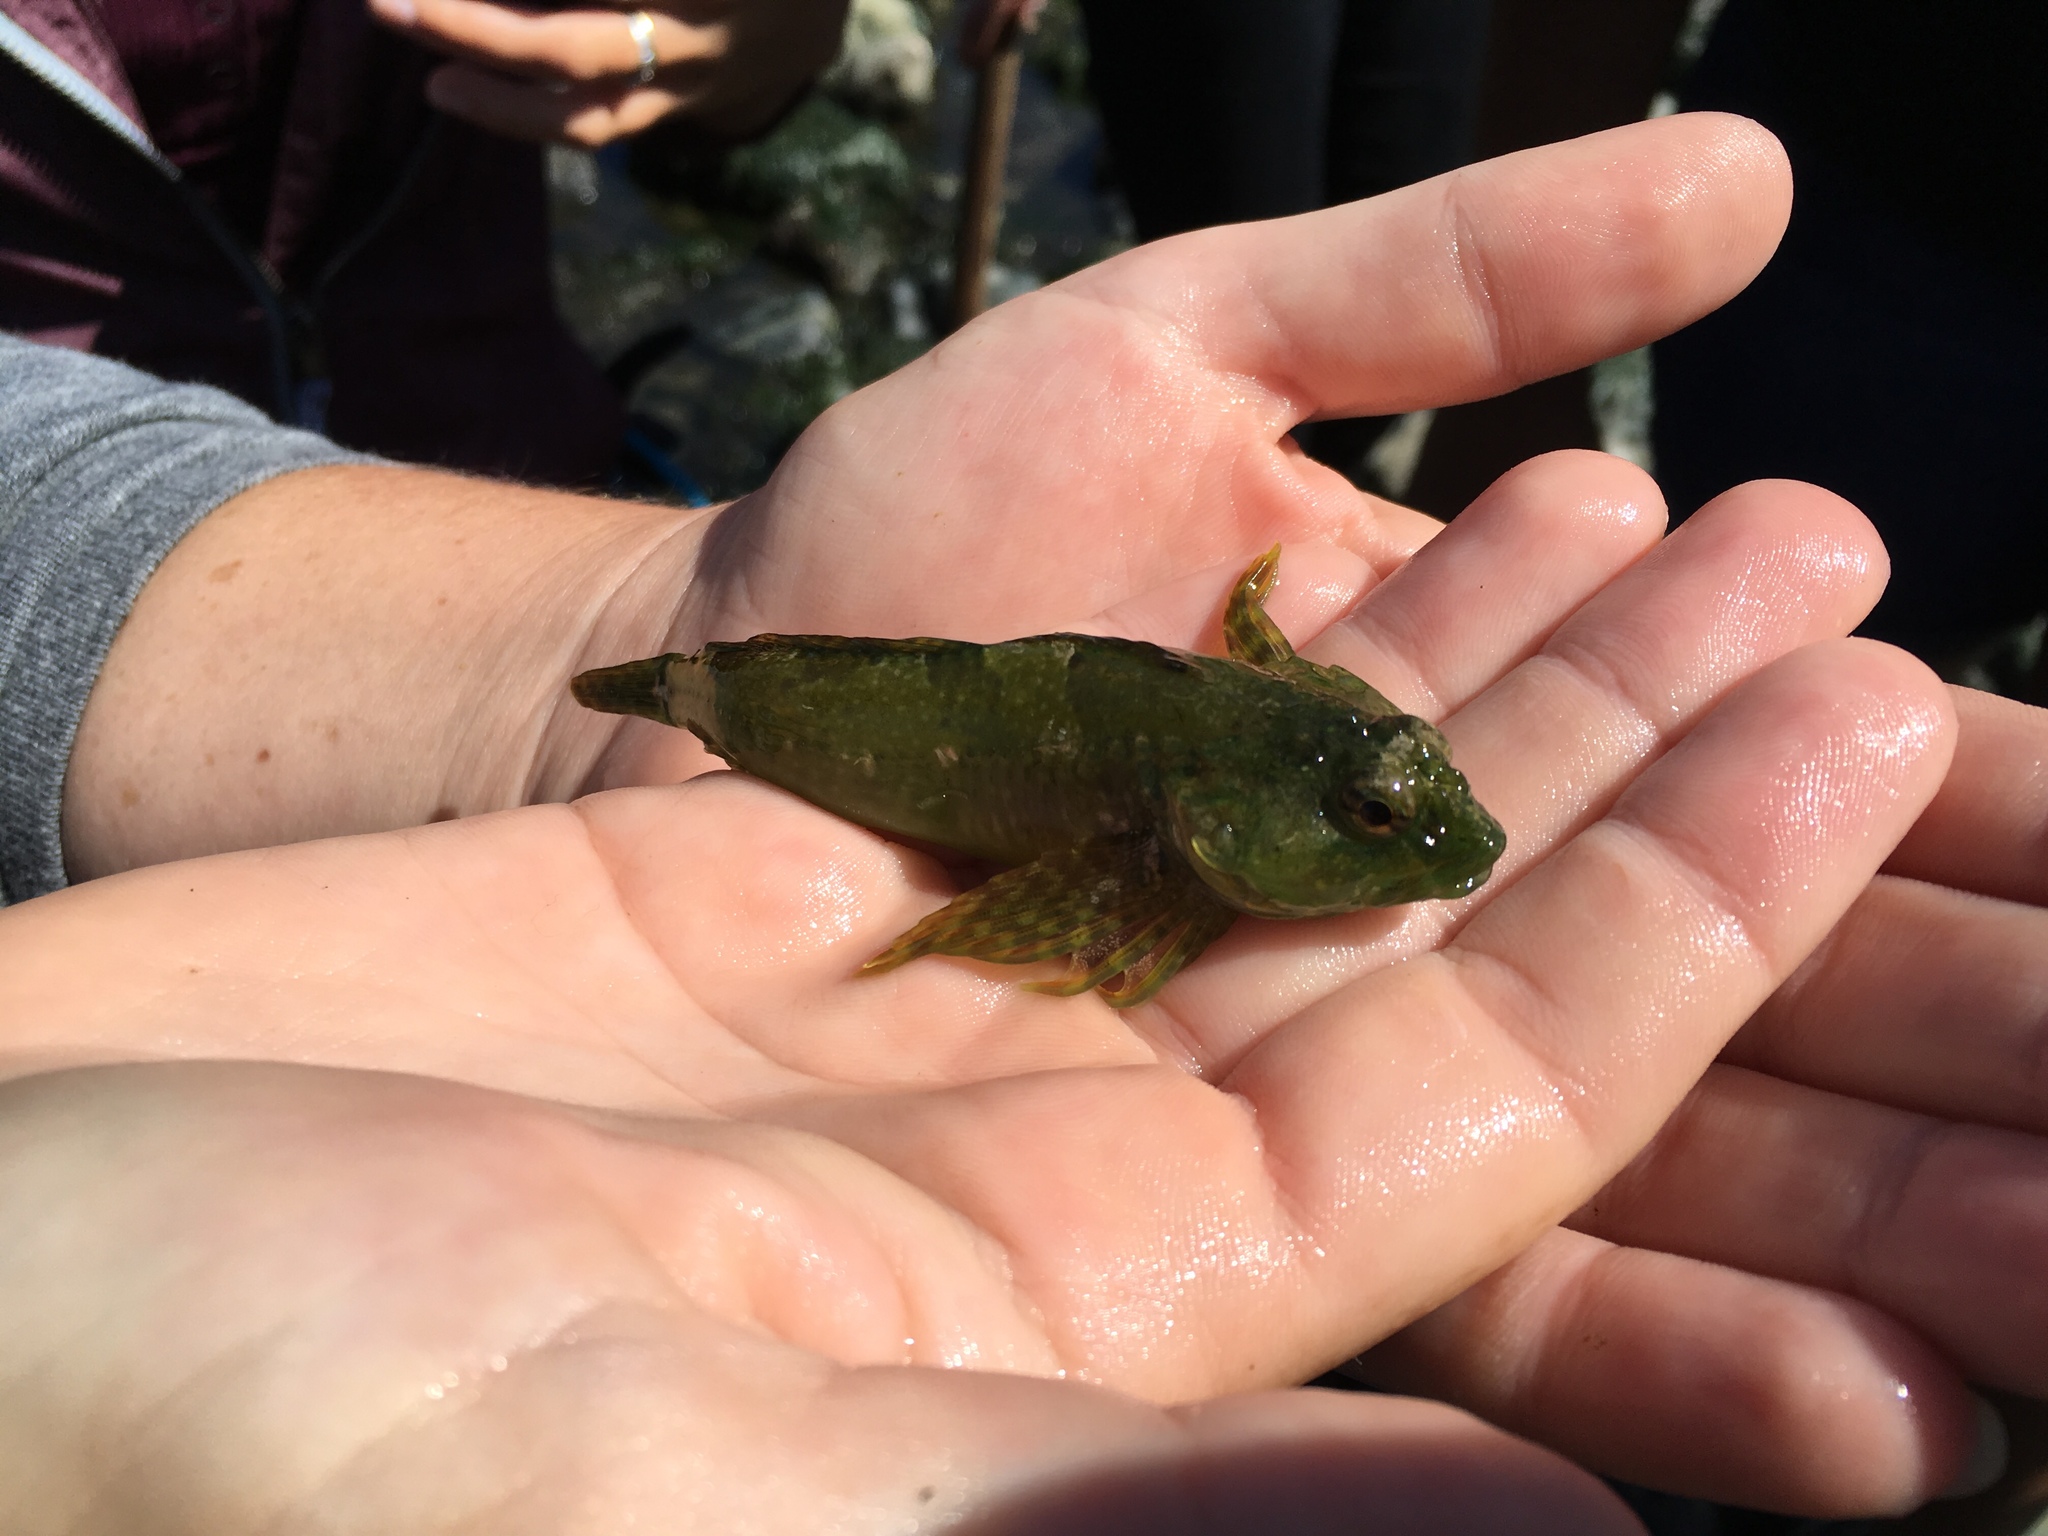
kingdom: Animalia
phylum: Chordata
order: Scorpaeniformes
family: Cottidae
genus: Oligocottus
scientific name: Oligocottus maculosus
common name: Tidepool sculpin
